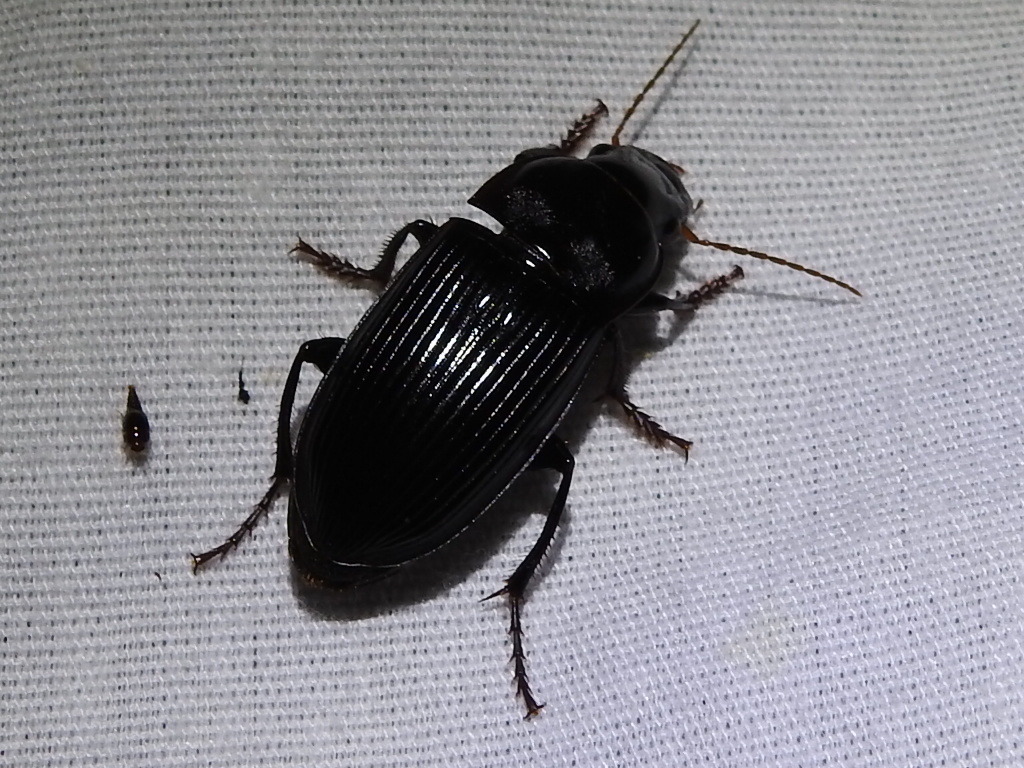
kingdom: Animalia
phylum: Arthropoda
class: Insecta
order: Coleoptera
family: Carabidae
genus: Harpalus
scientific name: Harpalus katiae
